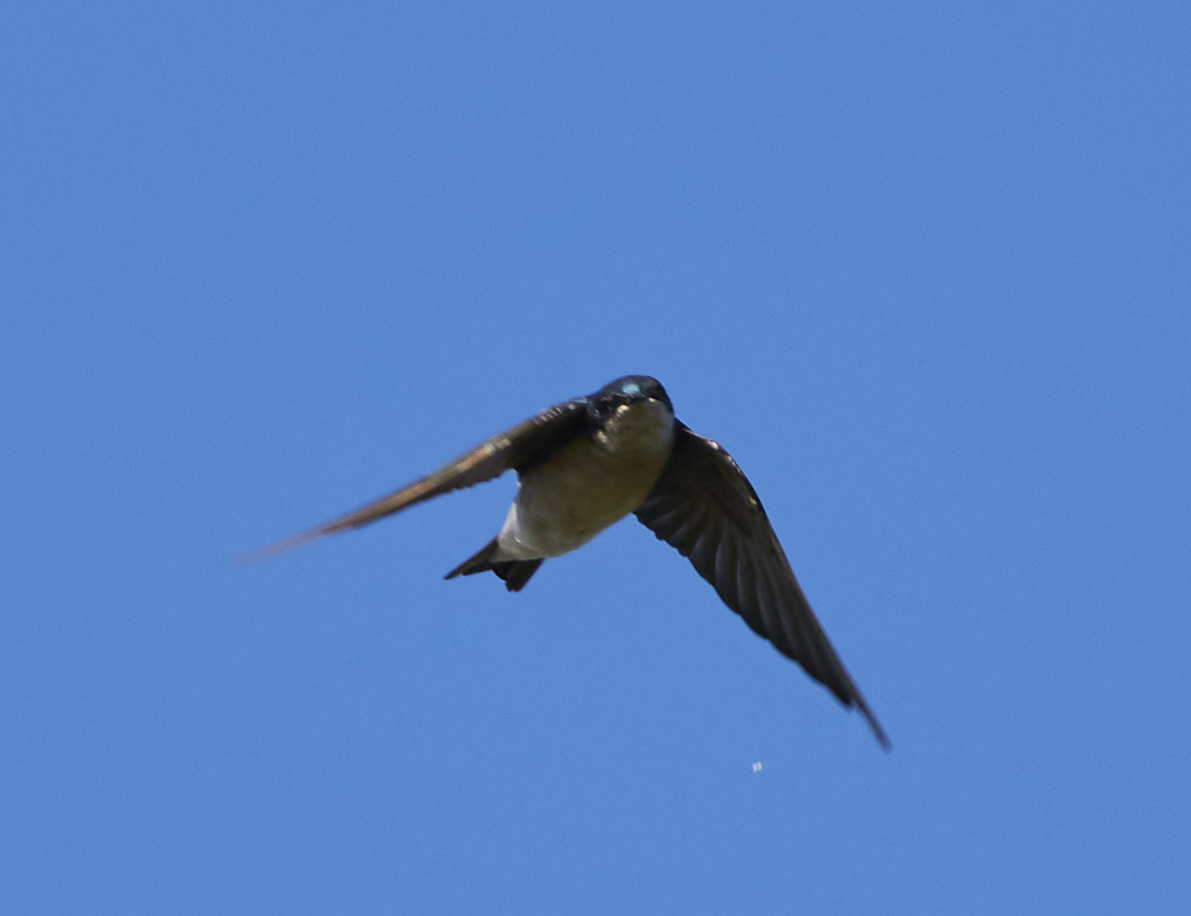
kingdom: Animalia
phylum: Chordata
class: Aves
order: Passeriformes
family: Hirundinidae
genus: Tachycineta
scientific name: Tachycineta bicolor
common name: Tree swallow
